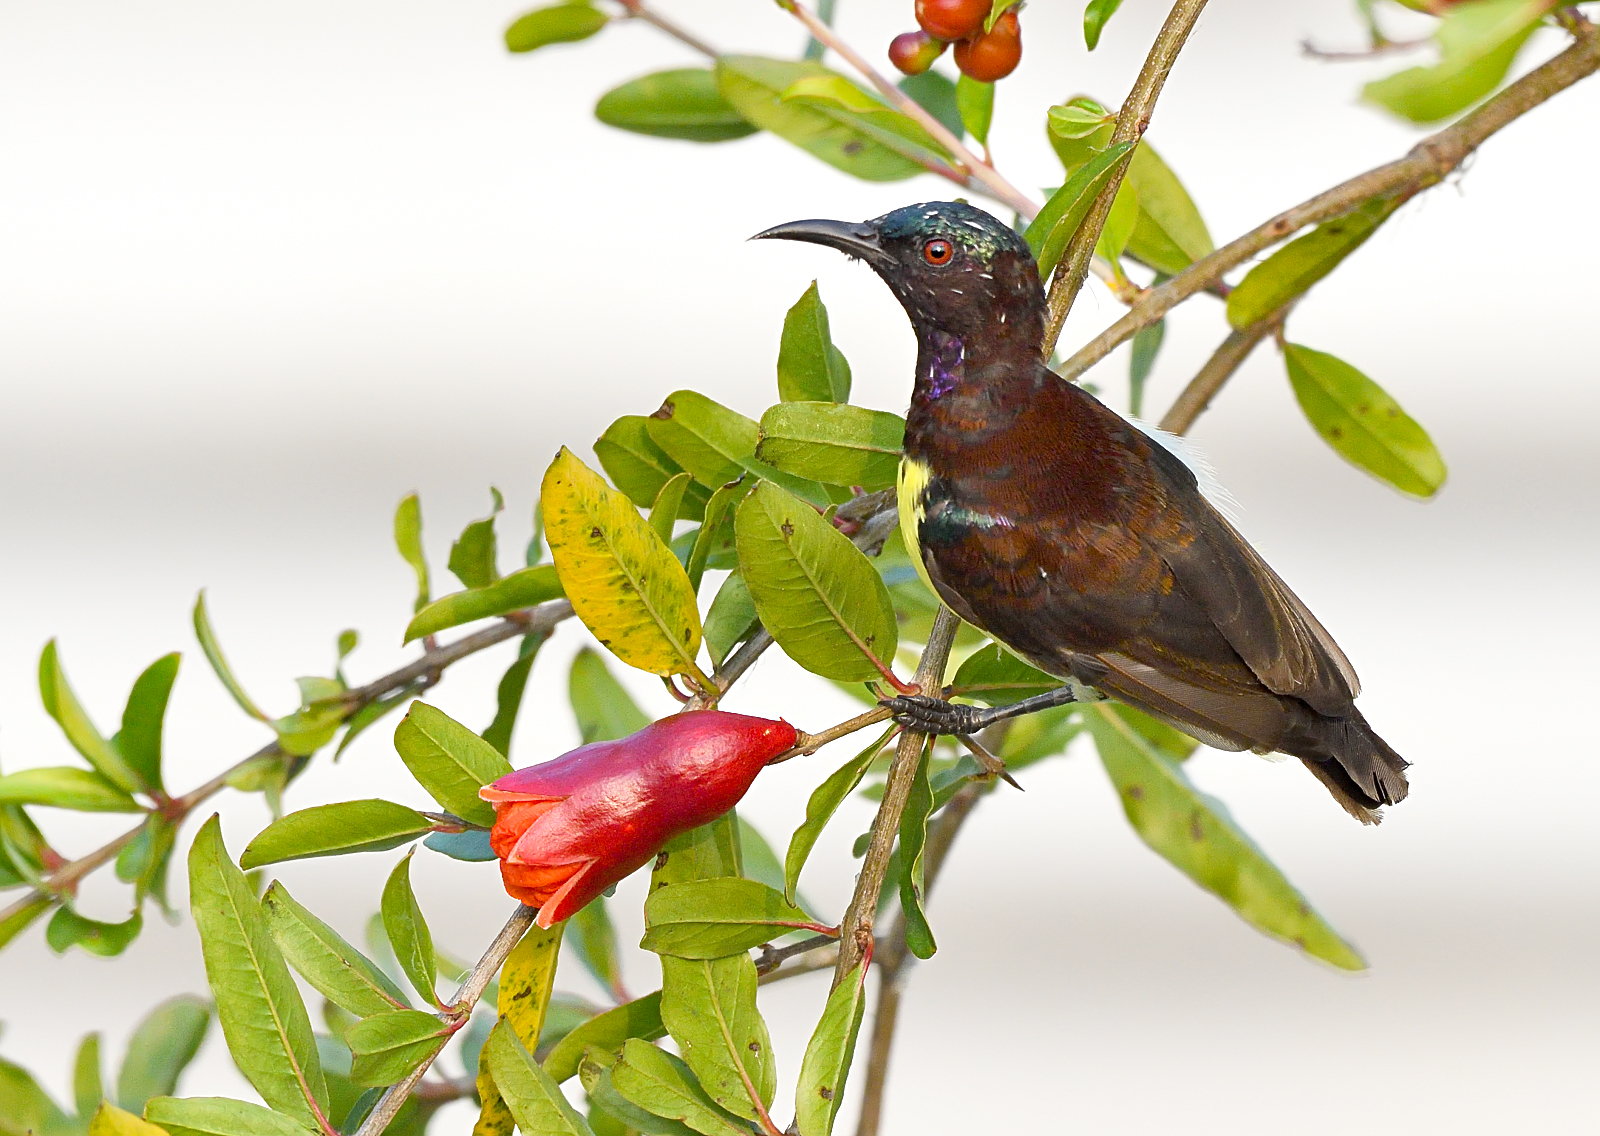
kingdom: Animalia
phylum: Chordata
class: Aves
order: Passeriformes
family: Nectariniidae
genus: Leptocoma
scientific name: Leptocoma zeylonica
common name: Purple-rumped sunbird
